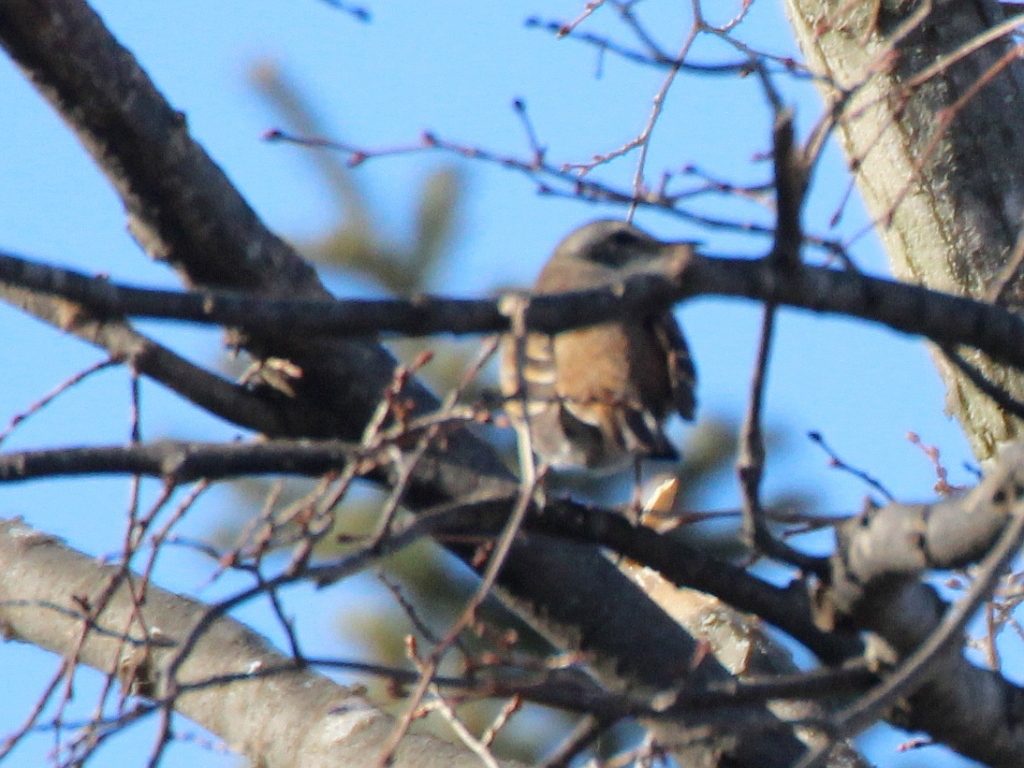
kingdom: Animalia
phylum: Chordata
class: Aves
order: Passeriformes
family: Turdidae
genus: Turdus
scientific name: Turdus eunomus
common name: Dusky thrush
